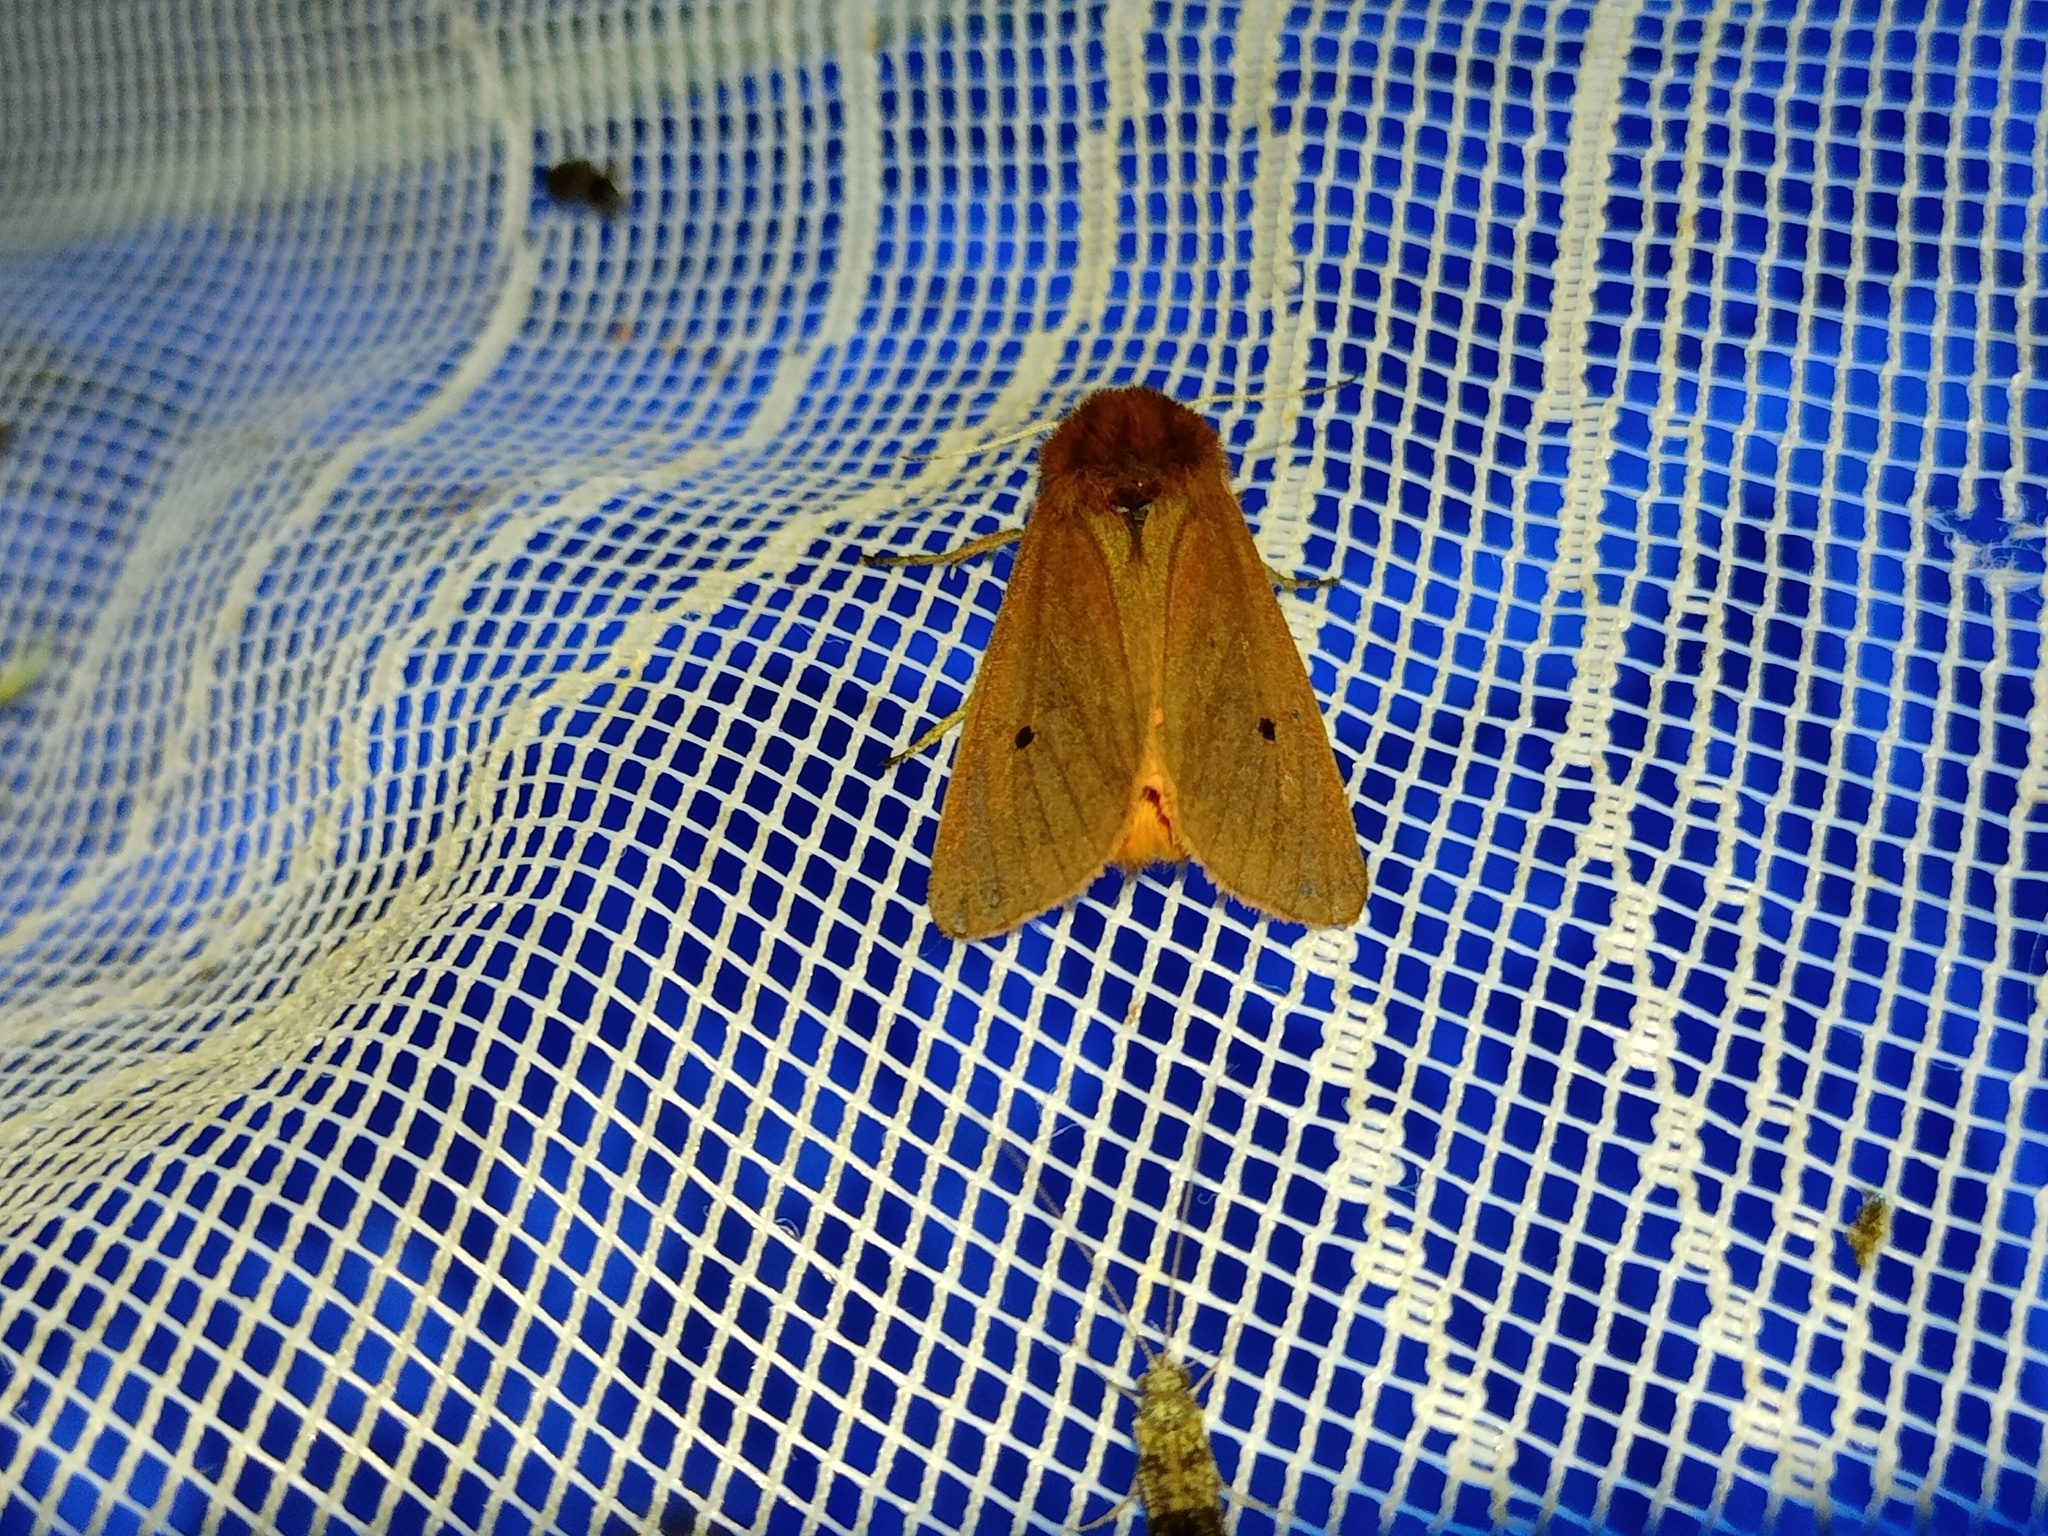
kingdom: Animalia
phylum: Arthropoda
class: Insecta
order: Lepidoptera
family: Erebidae
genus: Phragmatobia
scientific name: Phragmatobia fuliginosa
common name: Ruby tiger
